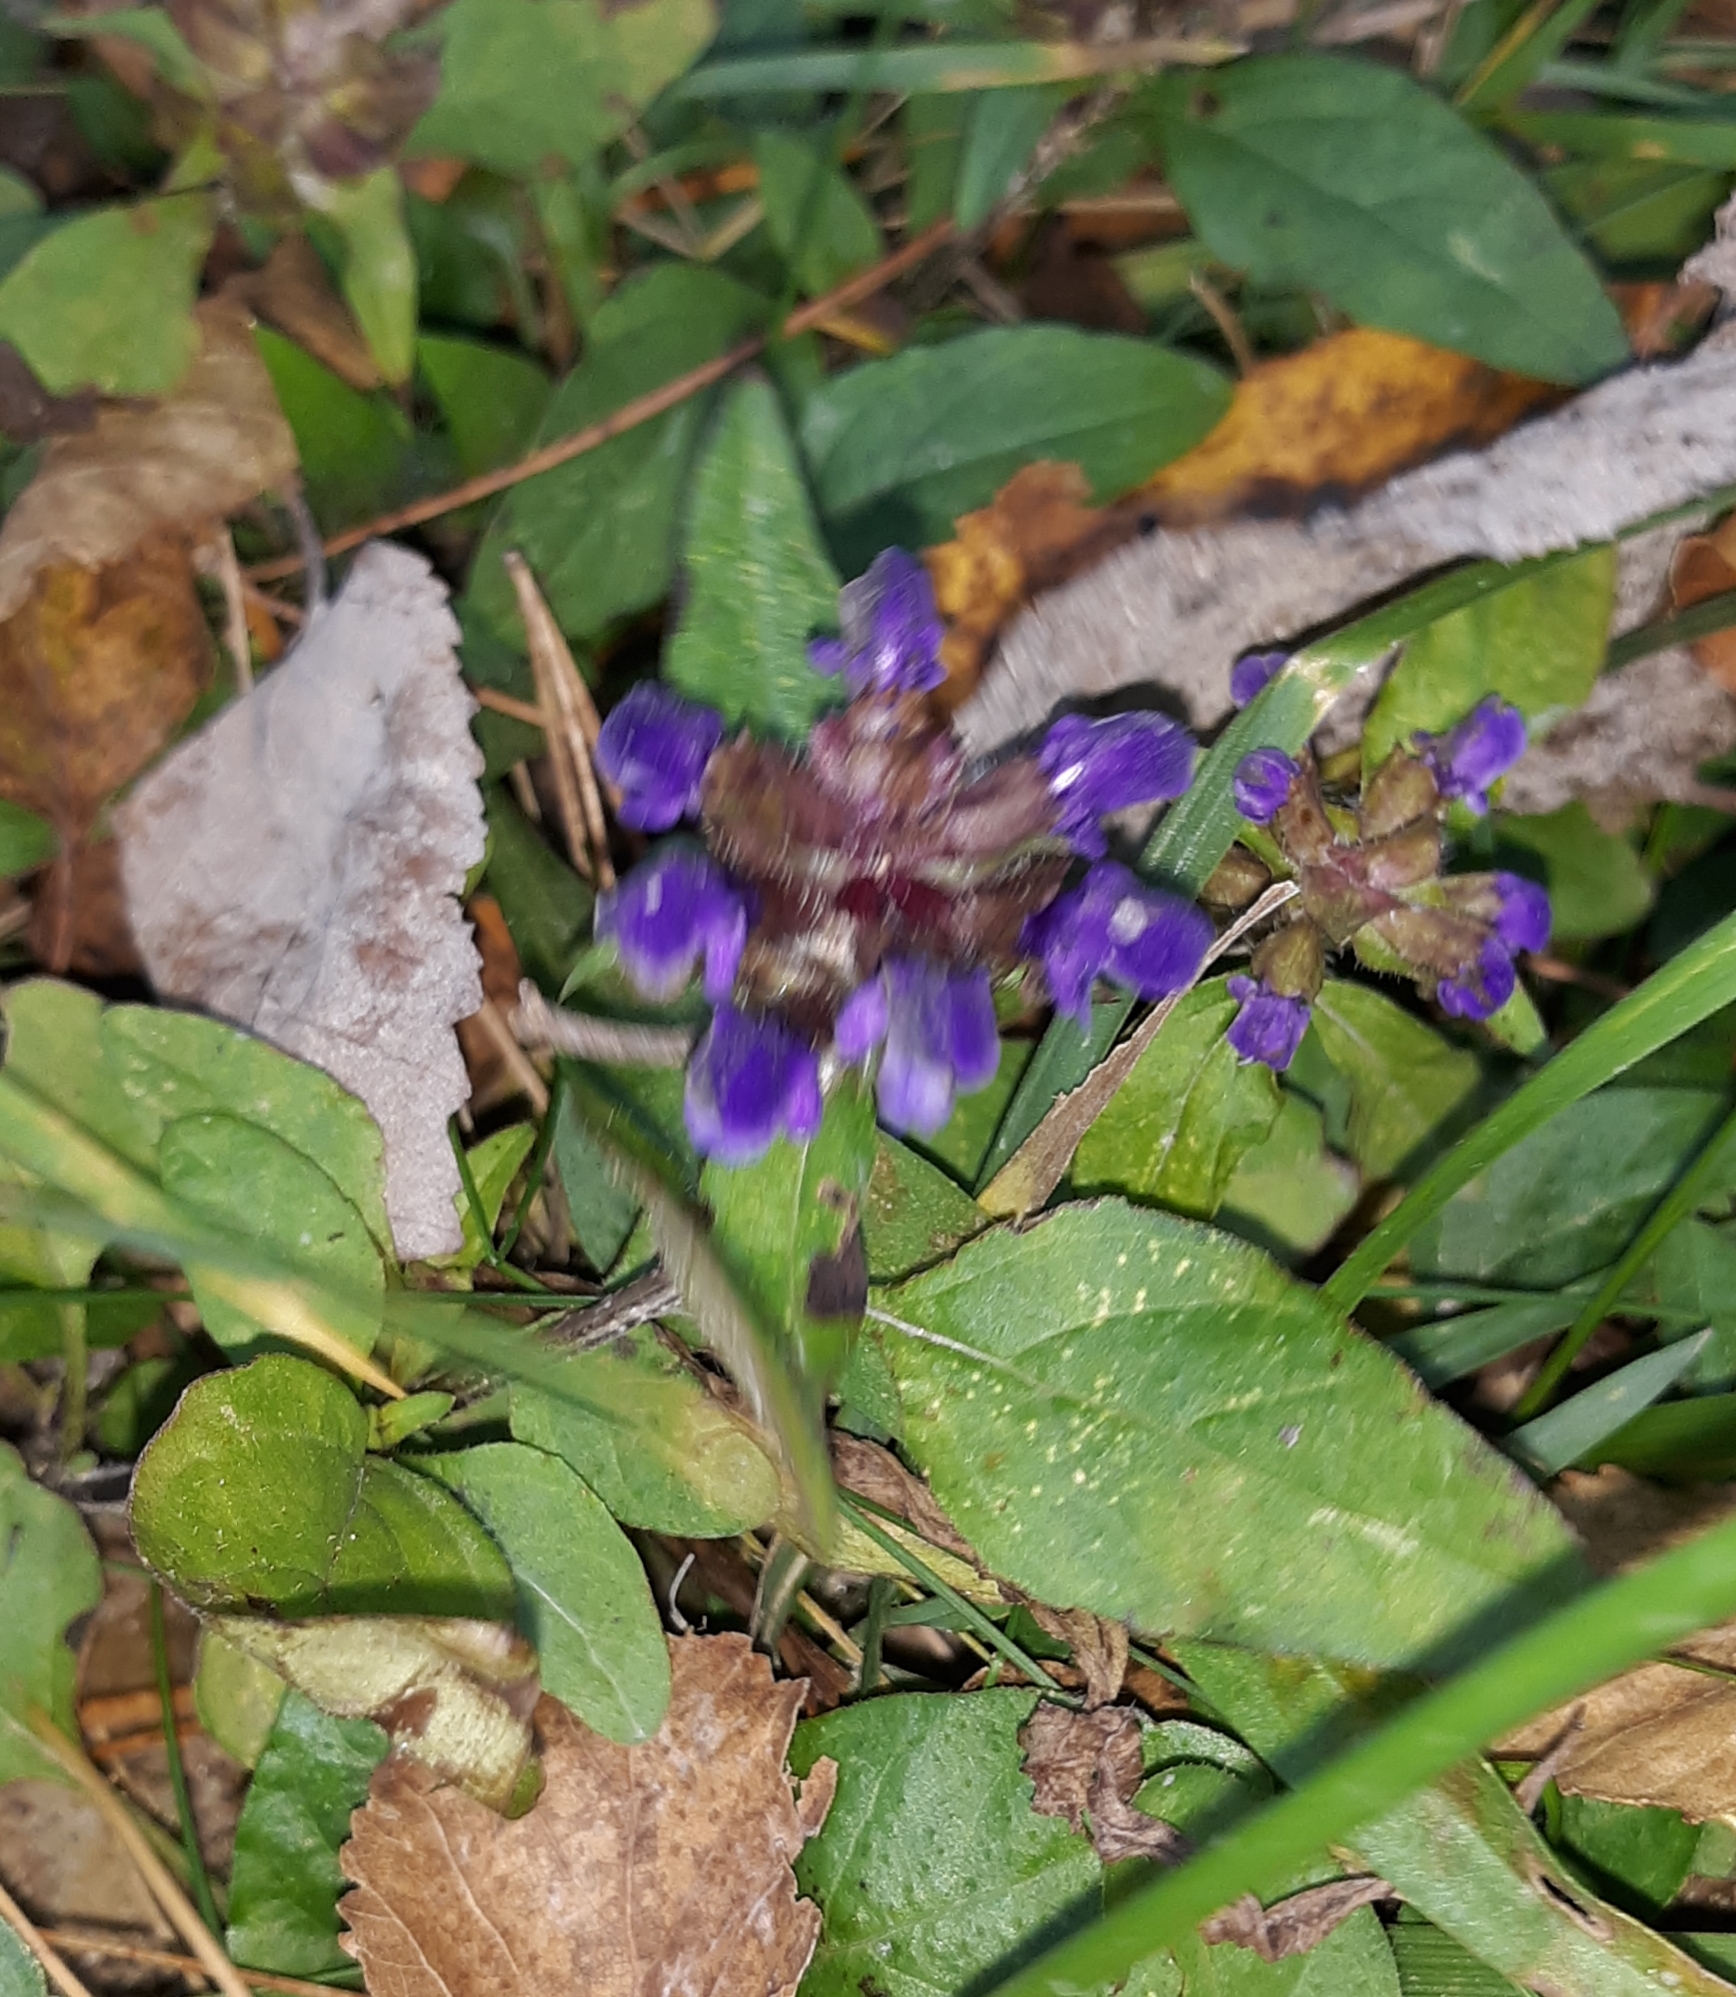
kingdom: Plantae
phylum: Tracheophyta
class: Magnoliopsida
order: Lamiales
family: Lamiaceae
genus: Prunella
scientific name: Prunella vulgaris
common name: Heal-all
